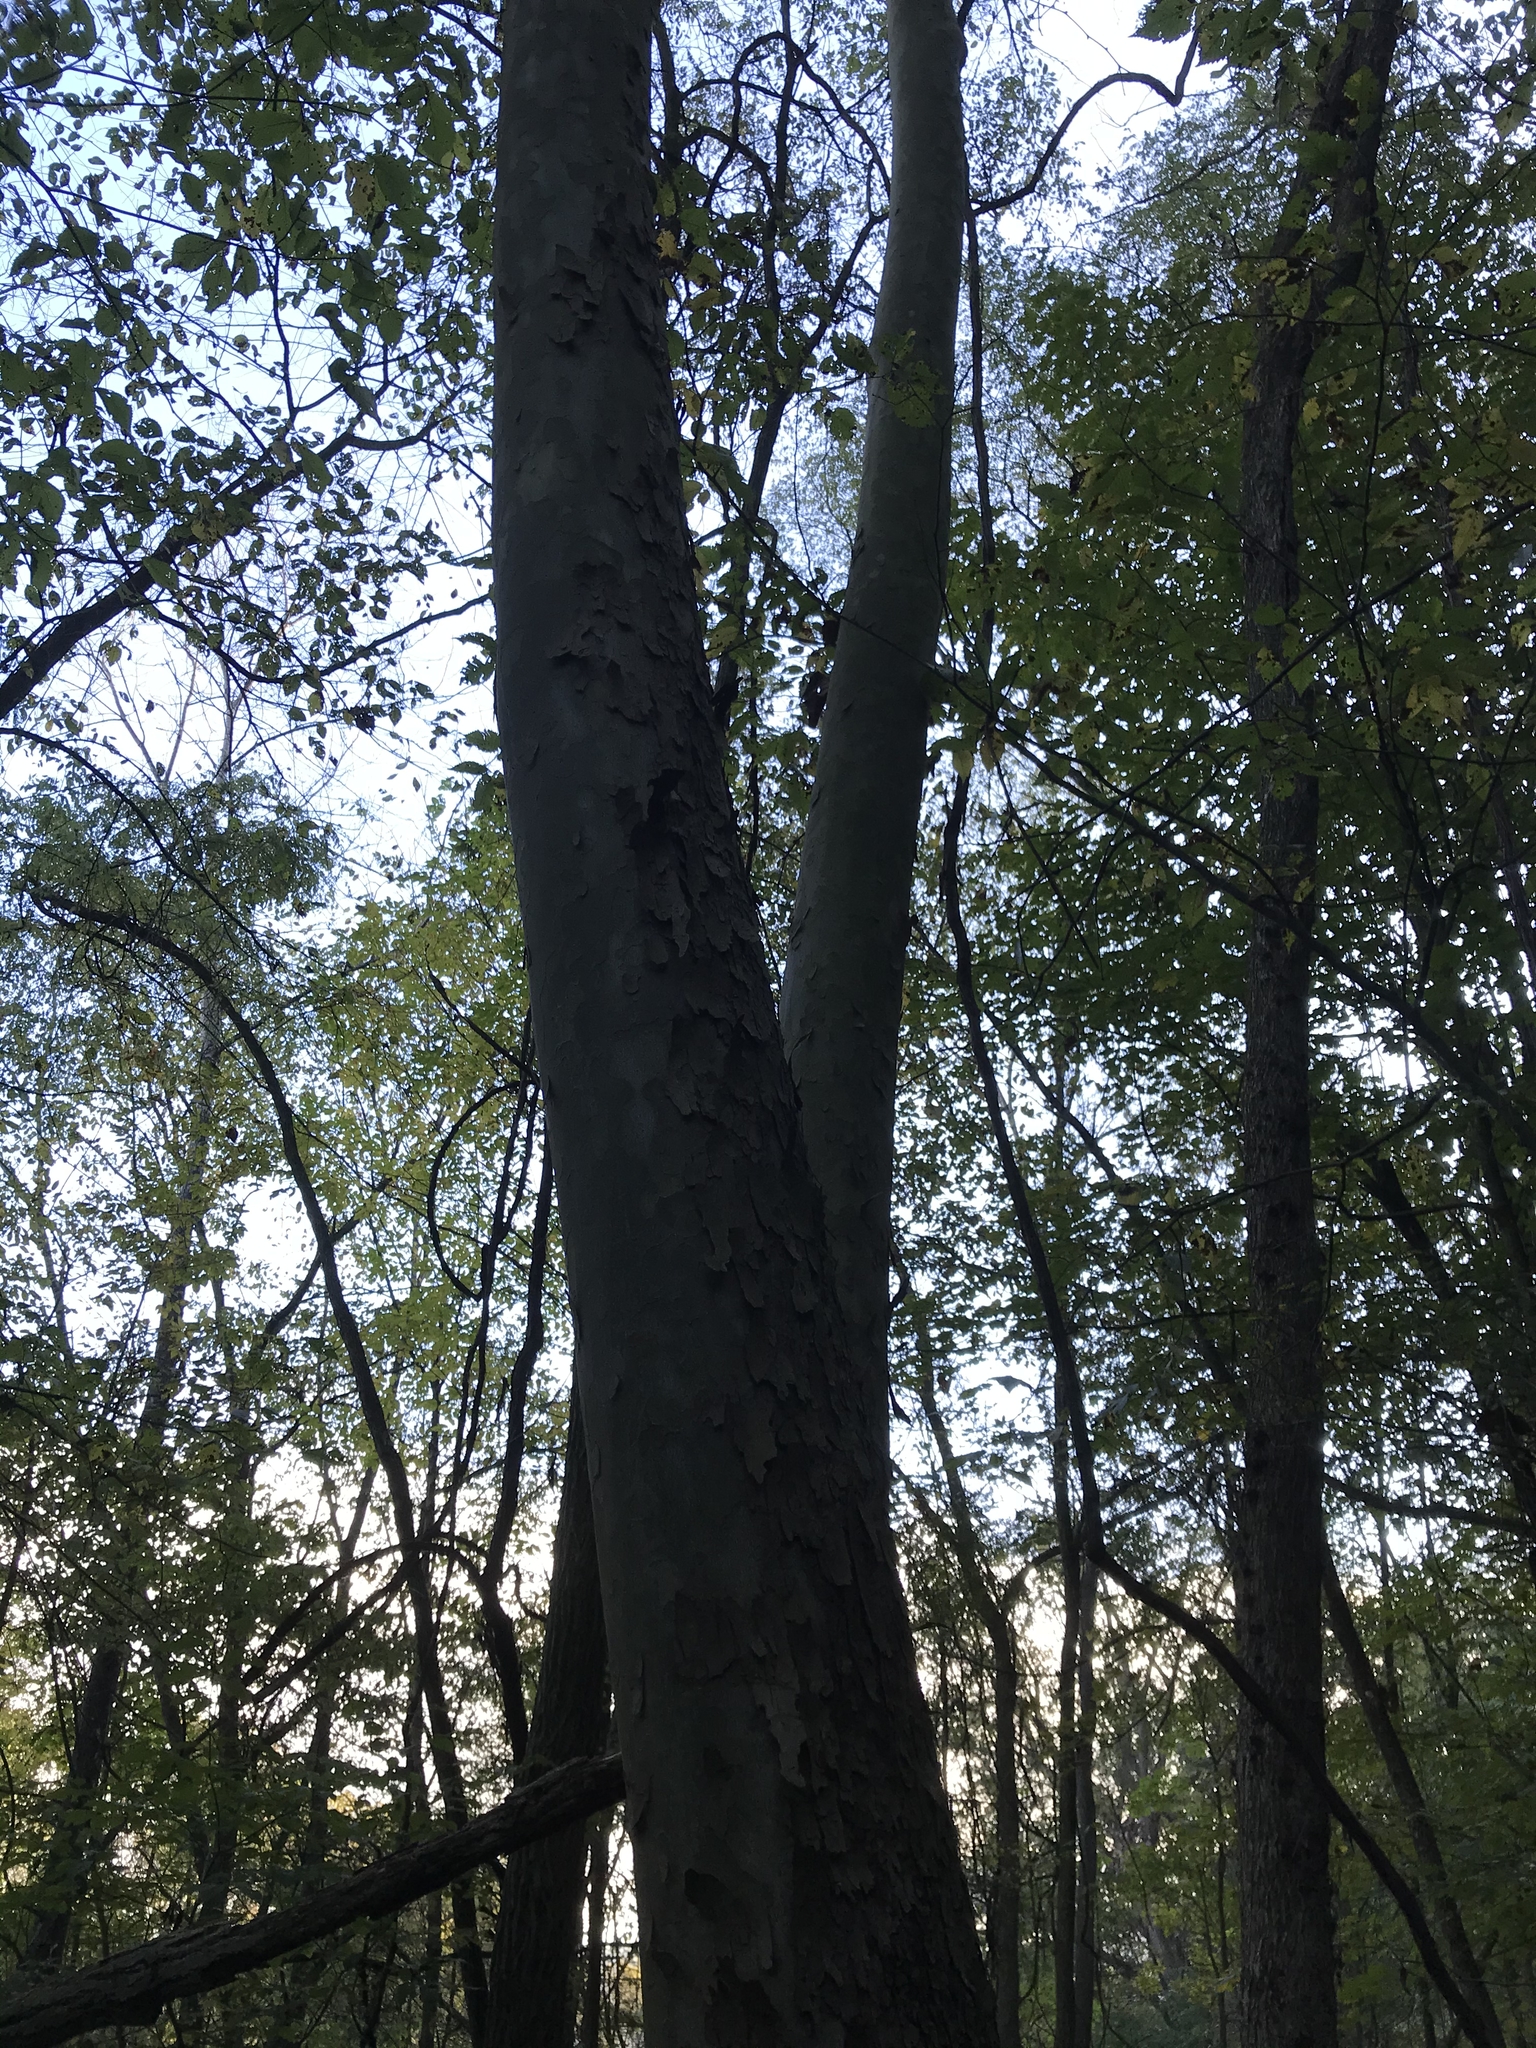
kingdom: Plantae
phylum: Tracheophyta
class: Magnoliopsida
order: Proteales
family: Platanaceae
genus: Platanus
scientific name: Platanus occidentalis
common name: American sycamore
